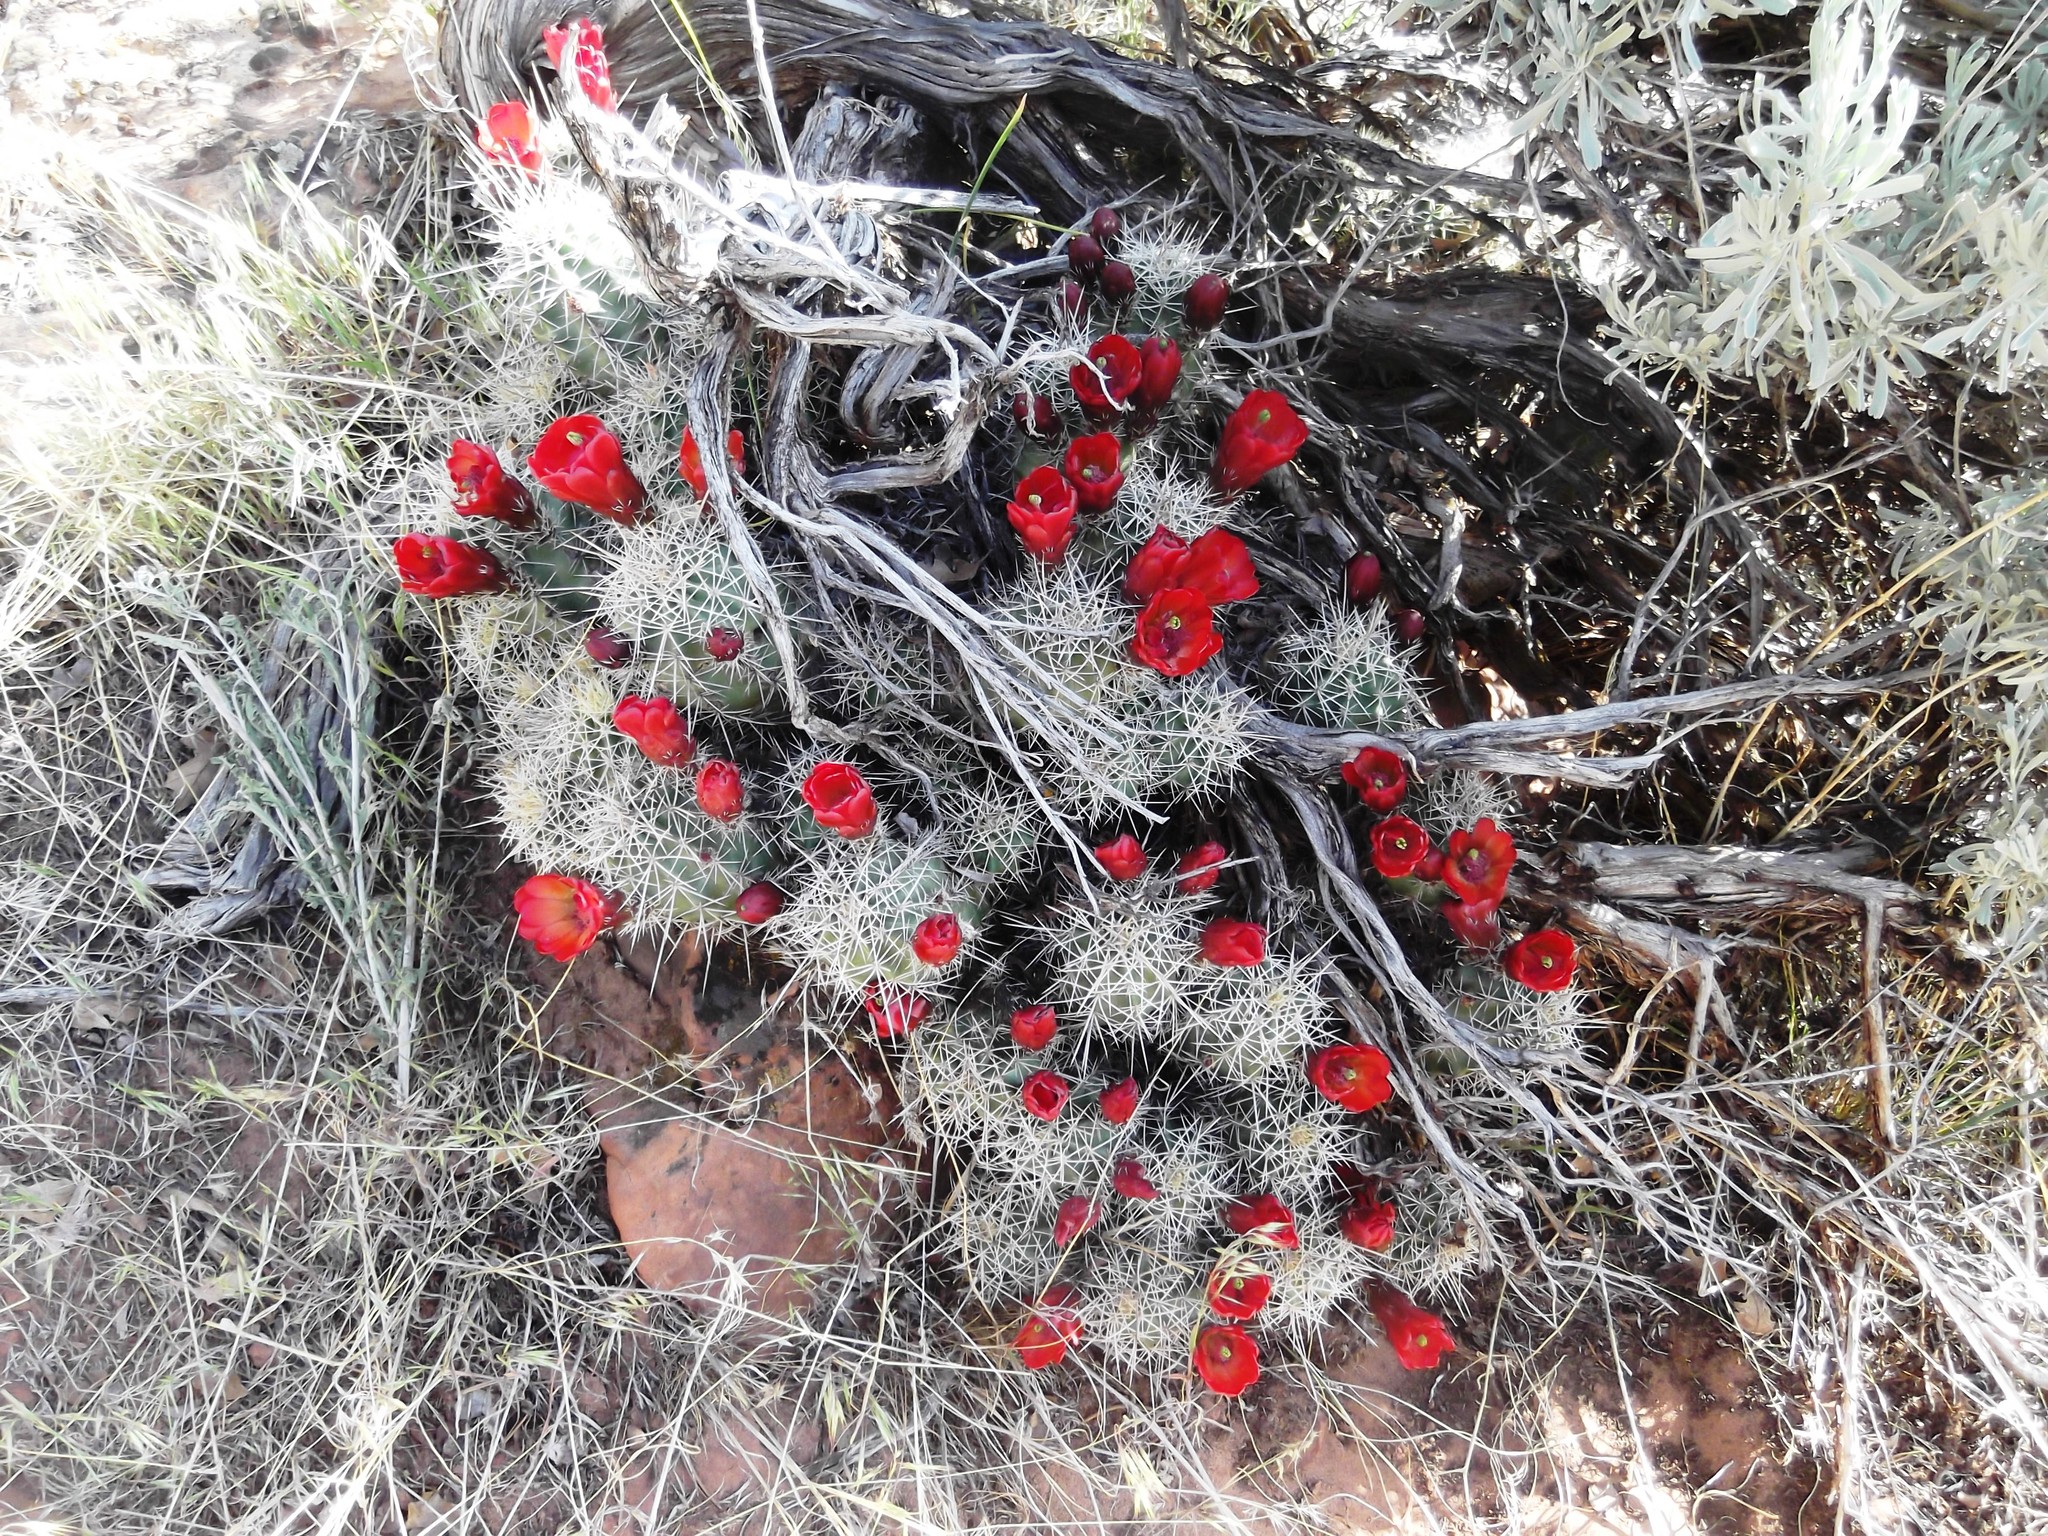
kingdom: Plantae
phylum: Tracheophyta
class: Magnoliopsida
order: Caryophyllales
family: Cactaceae
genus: Echinocereus
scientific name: Echinocereus triglochidiatus
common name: Claretcup hedgehog
